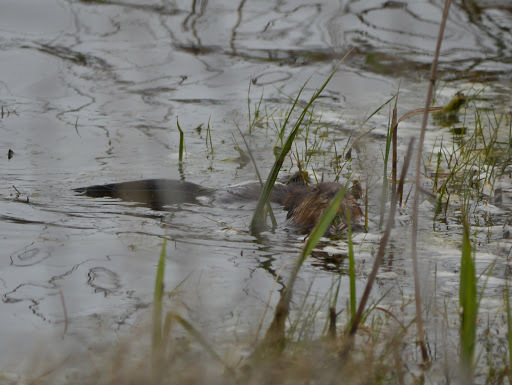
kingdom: Animalia
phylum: Chordata
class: Mammalia
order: Rodentia
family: Cricetidae
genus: Ondatra
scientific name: Ondatra zibethicus
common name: Muskrat
